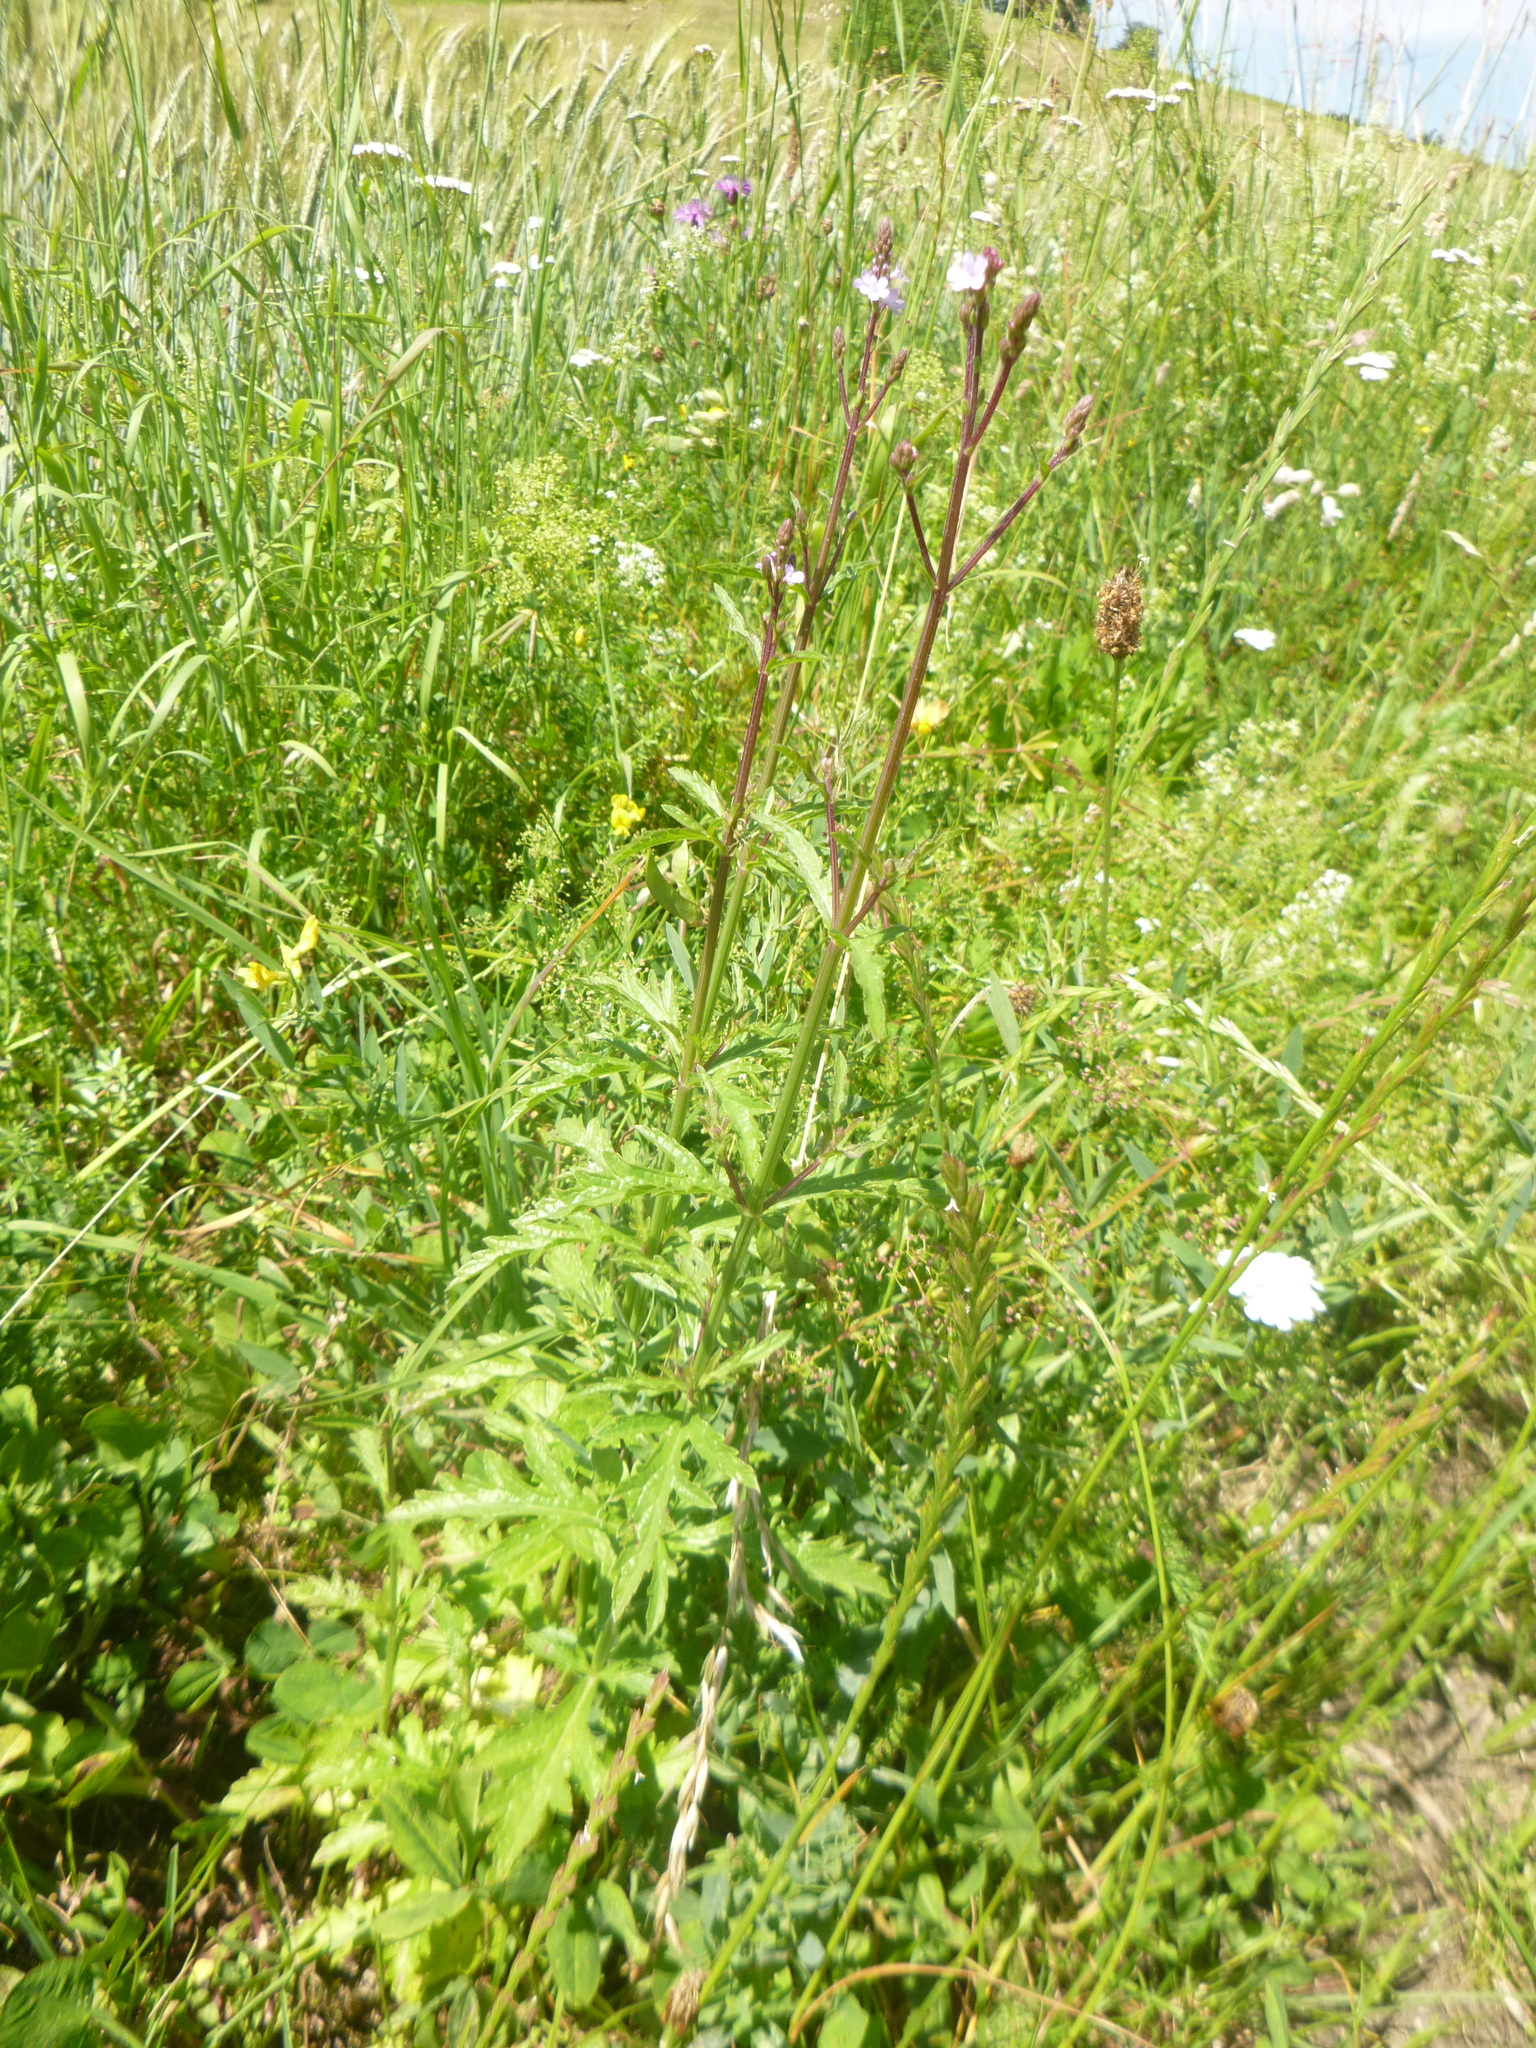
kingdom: Plantae
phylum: Tracheophyta
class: Magnoliopsida
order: Lamiales
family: Verbenaceae
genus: Verbena
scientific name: Verbena officinalis
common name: Vervain
